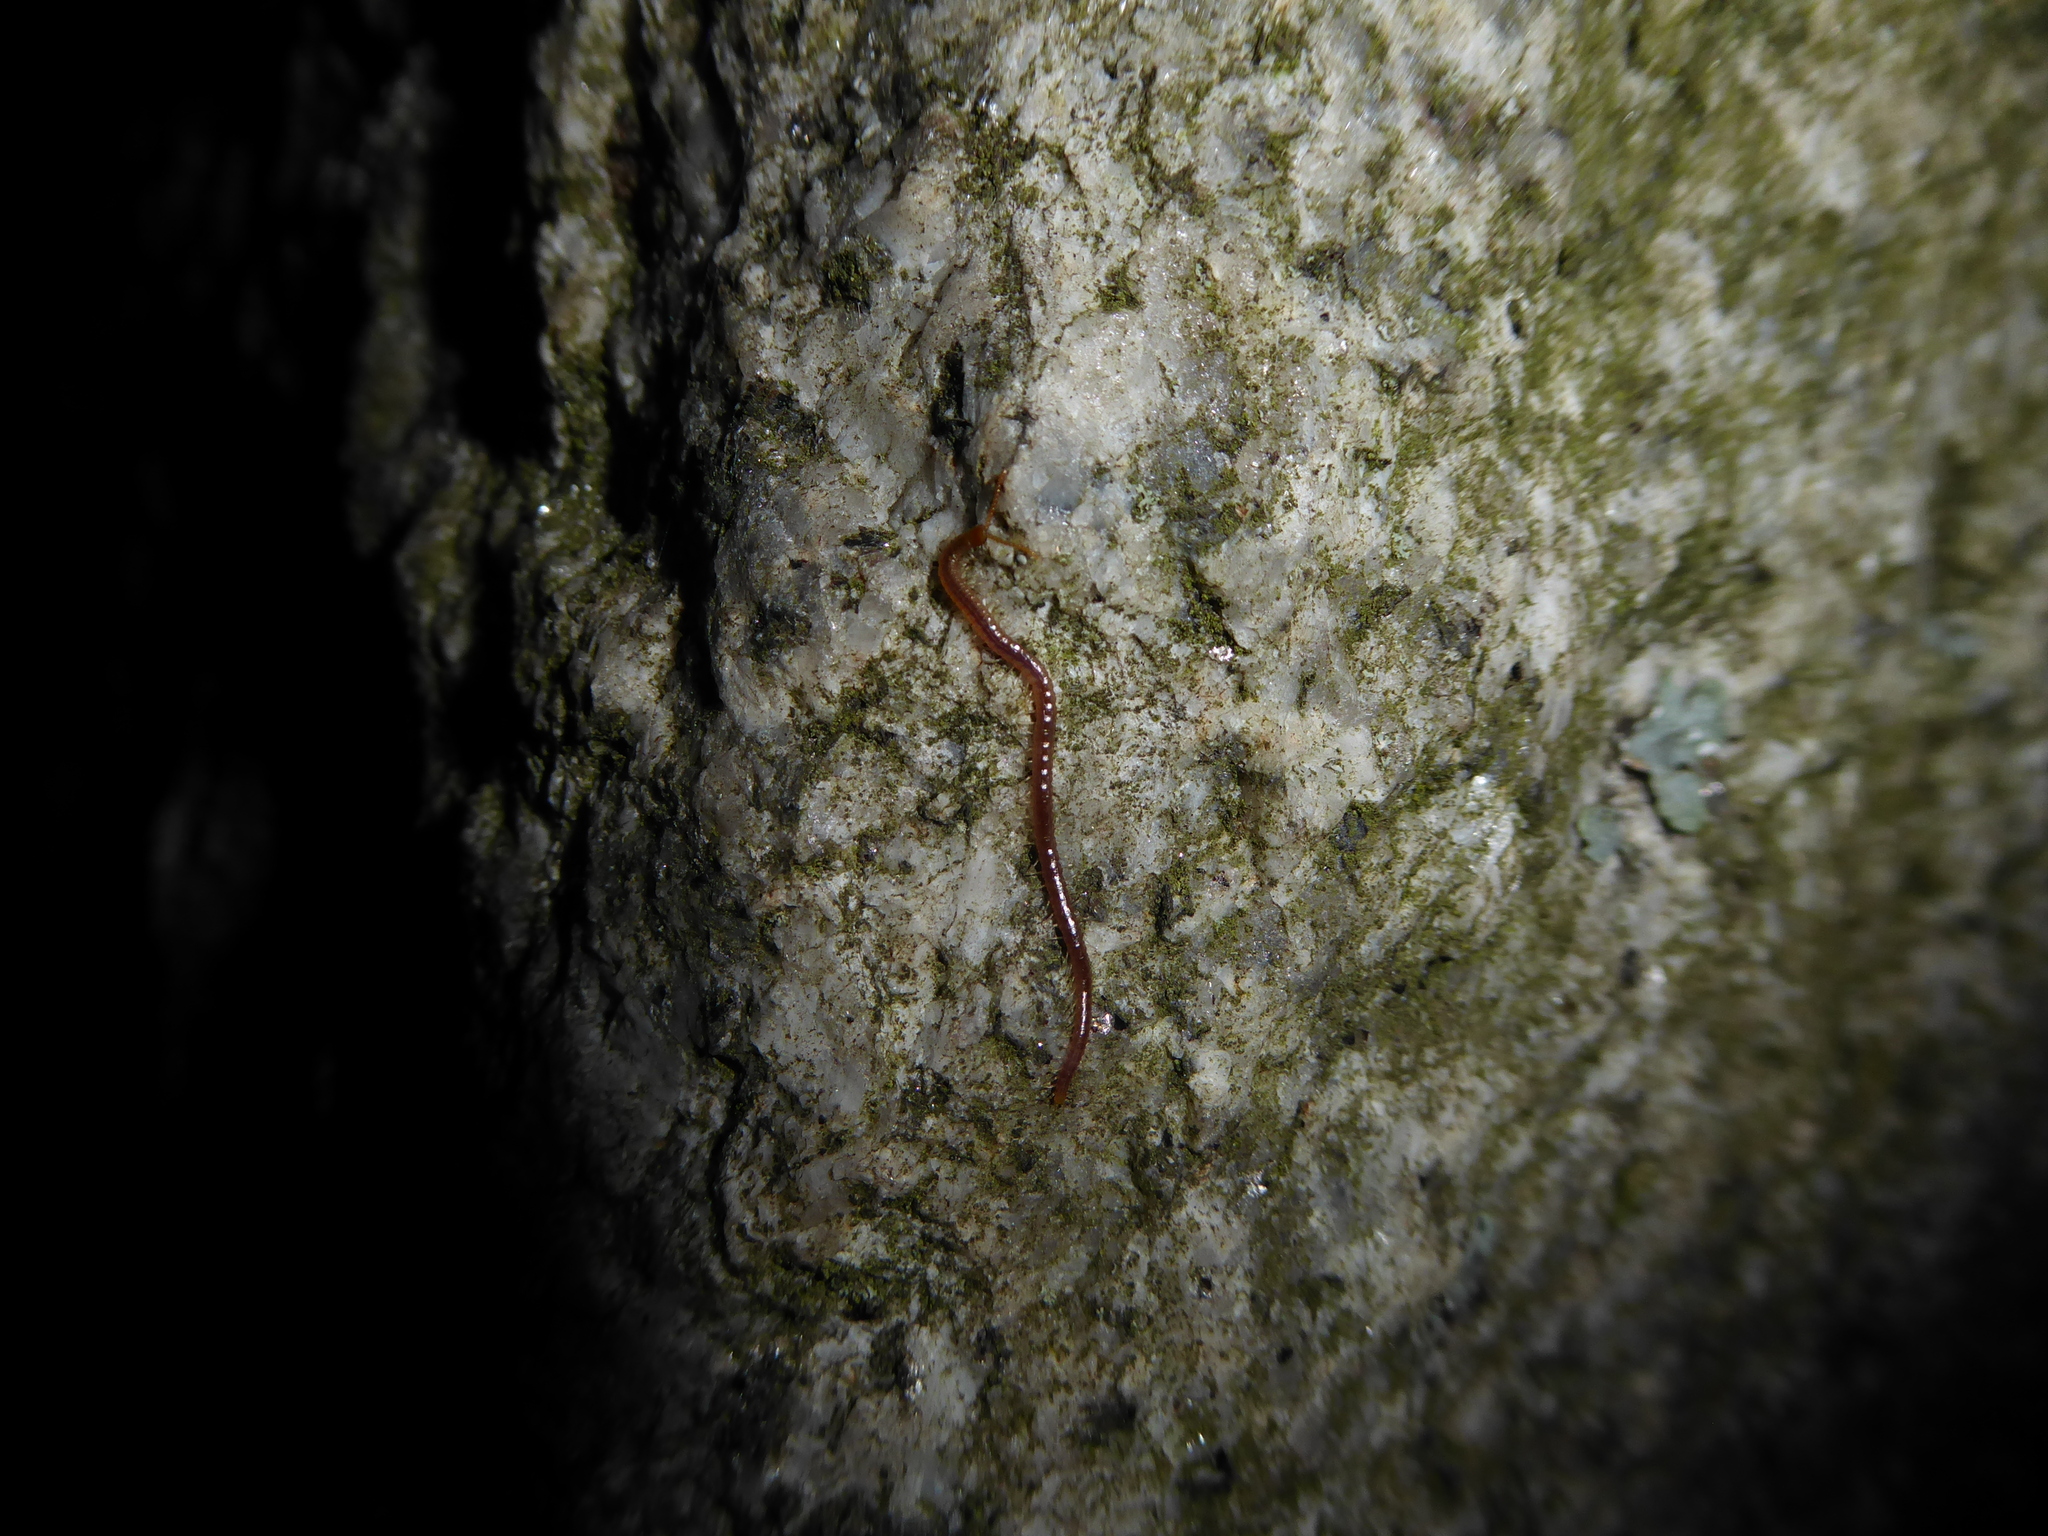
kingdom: Animalia
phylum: Arthropoda
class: Chilopoda
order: Geophilomorpha
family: Geophilidae
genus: Geophilus
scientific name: Geophilus carpophagus
